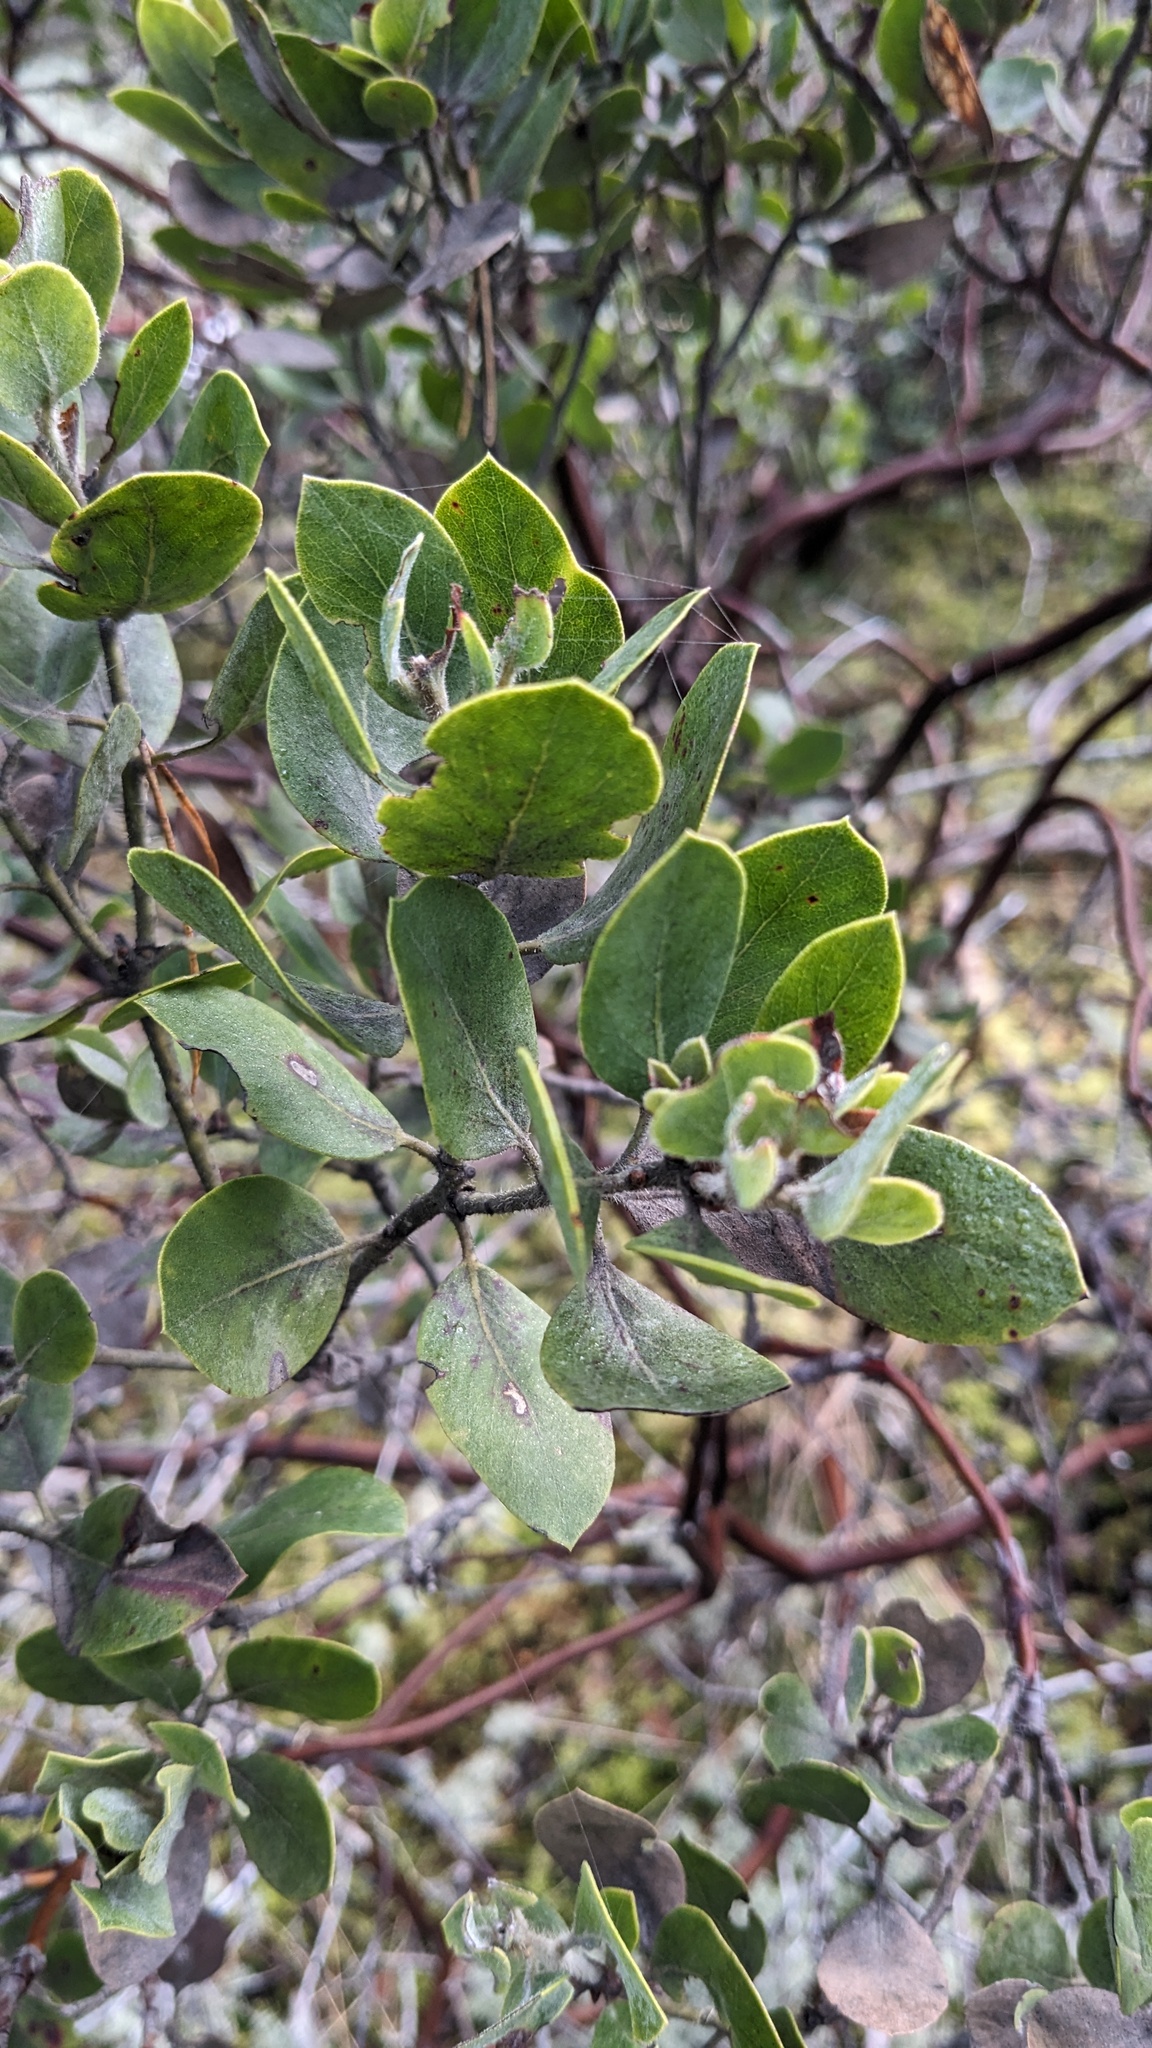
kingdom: Plantae
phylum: Tracheophyta
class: Magnoliopsida
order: Ericales
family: Ericaceae
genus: Arctostaphylos
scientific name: Arctostaphylos columbiana
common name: Bristly bearberry
